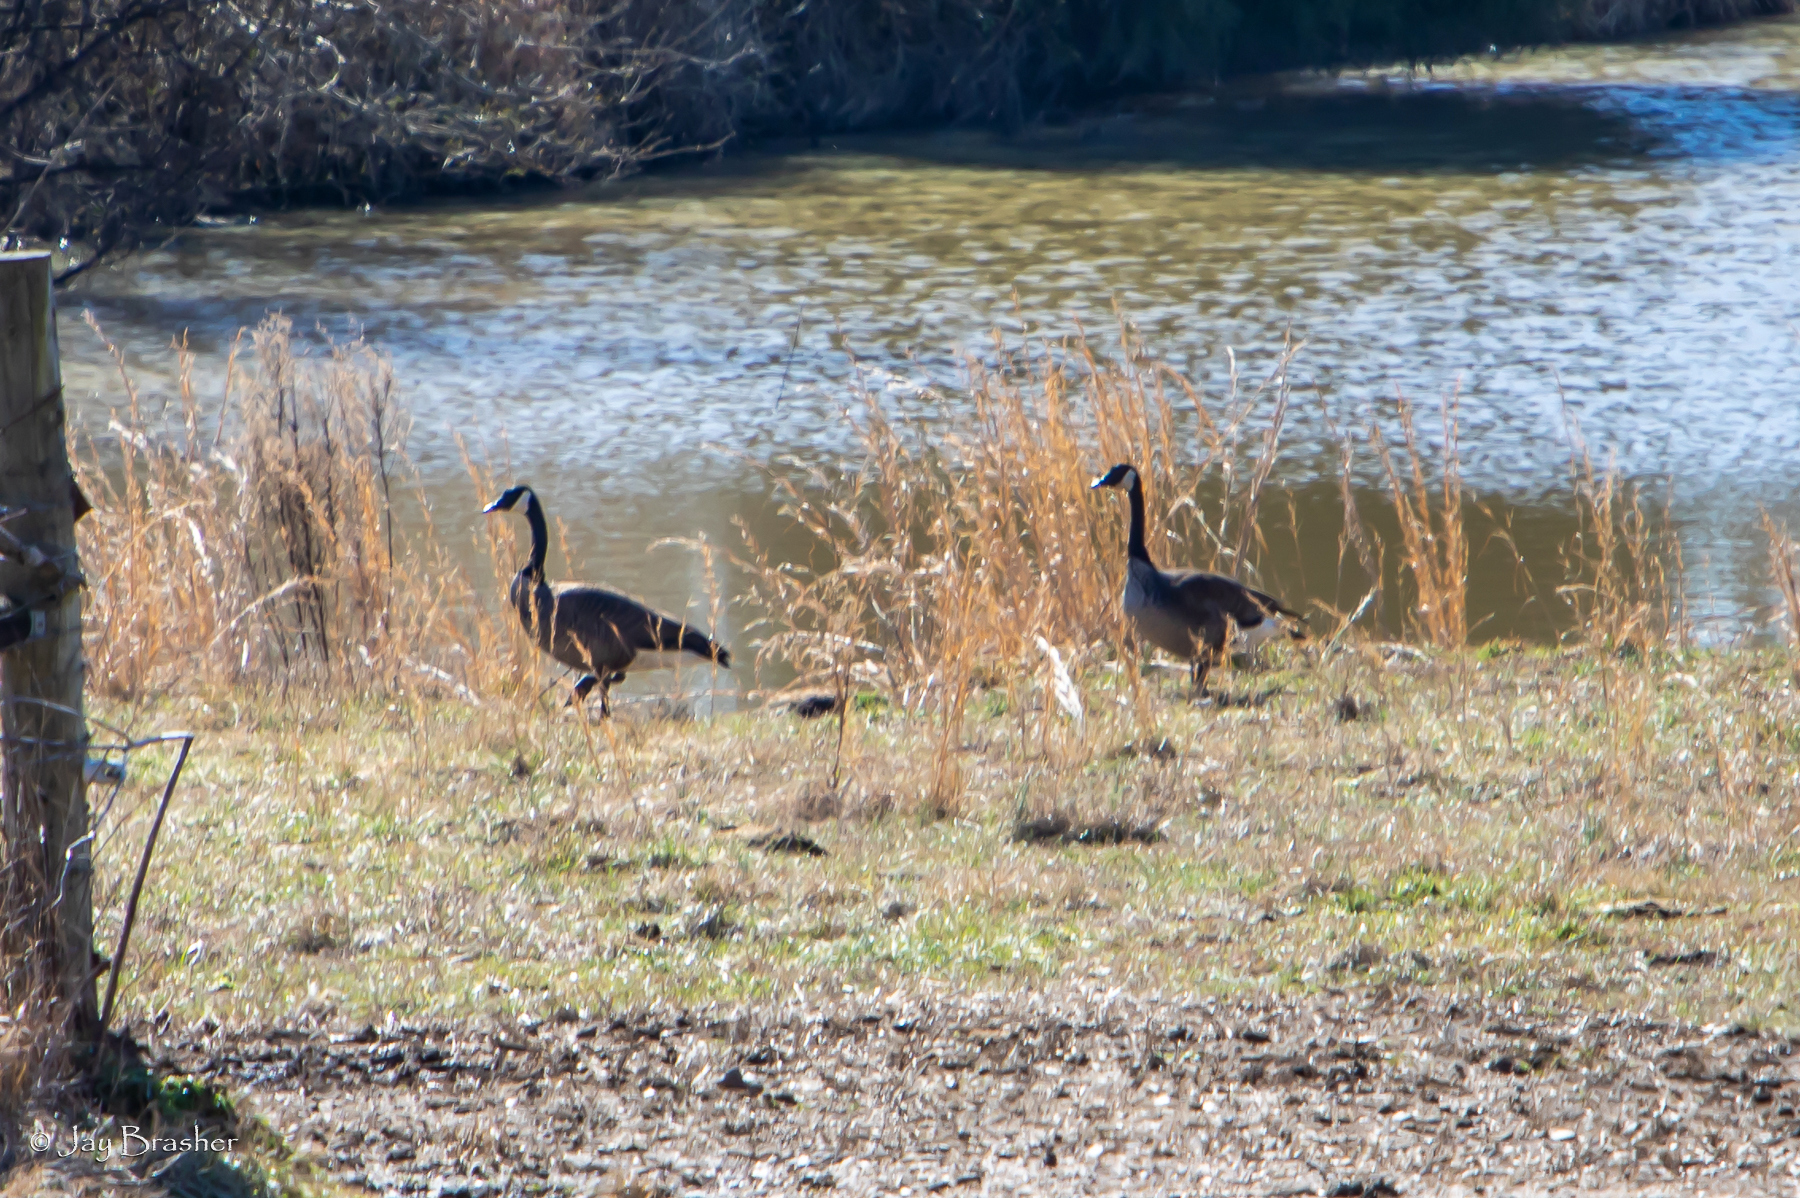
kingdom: Animalia
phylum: Chordata
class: Aves
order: Anseriformes
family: Anatidae
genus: Branta
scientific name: Branta canadensis
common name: Canada goose
